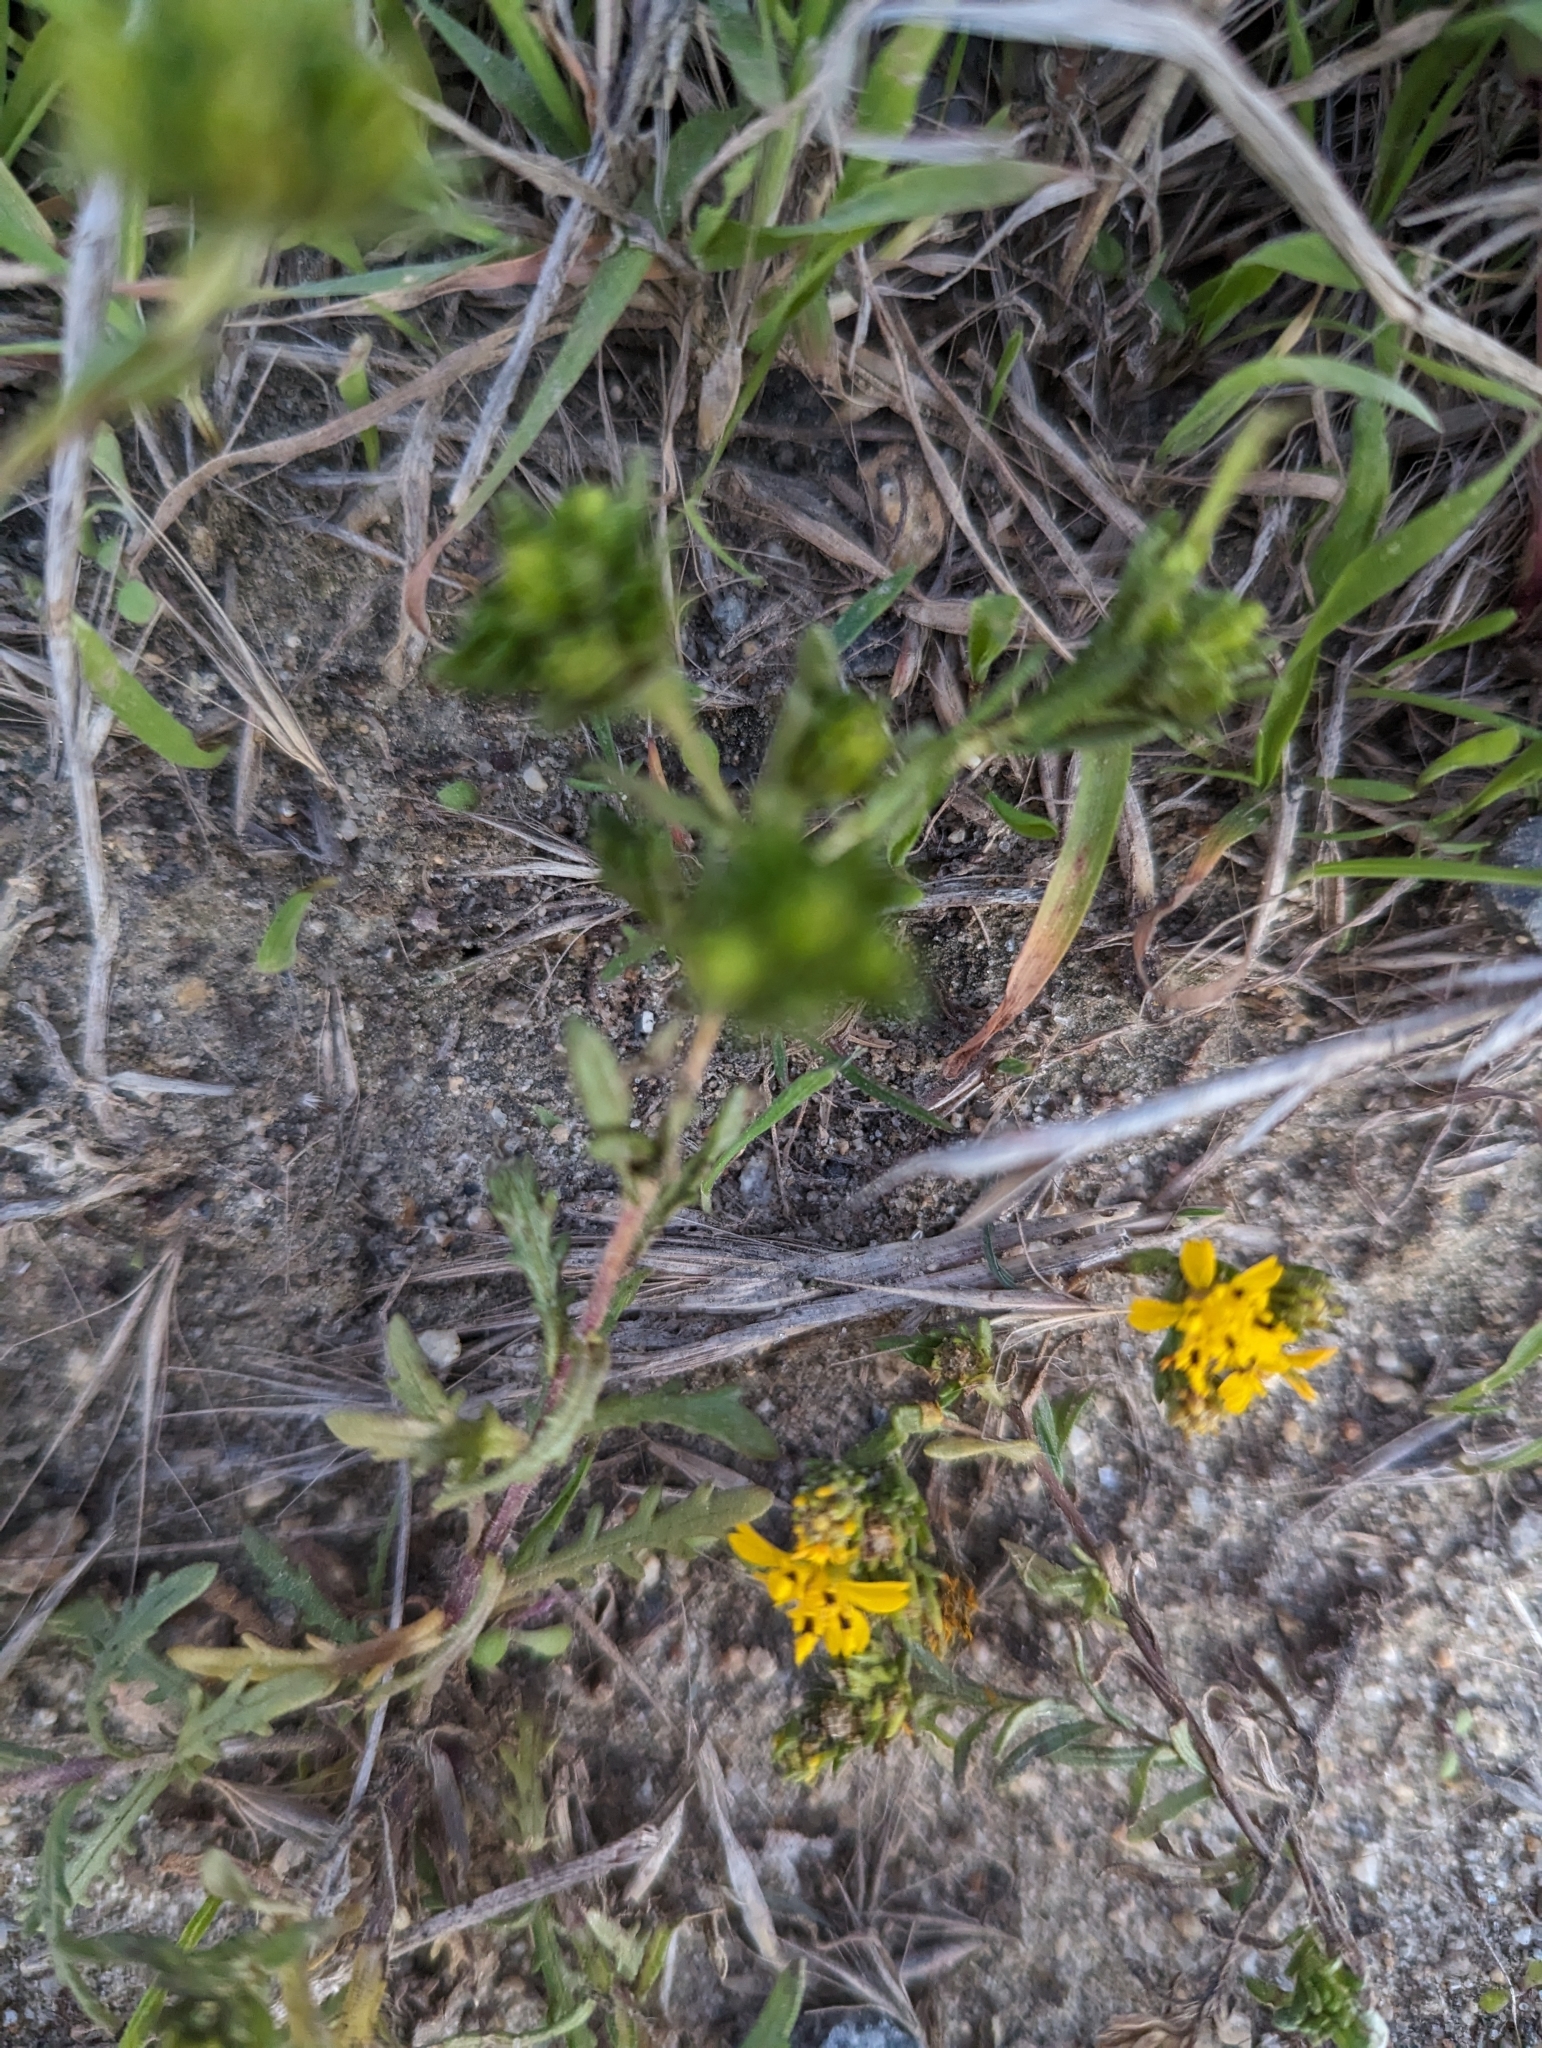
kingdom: Plantae
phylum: Tracheophyta
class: Magnoliopsida
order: Asterales
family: Asteraceae
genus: Deinandra
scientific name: Deinandra fasciculata
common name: Clustered tarweed
